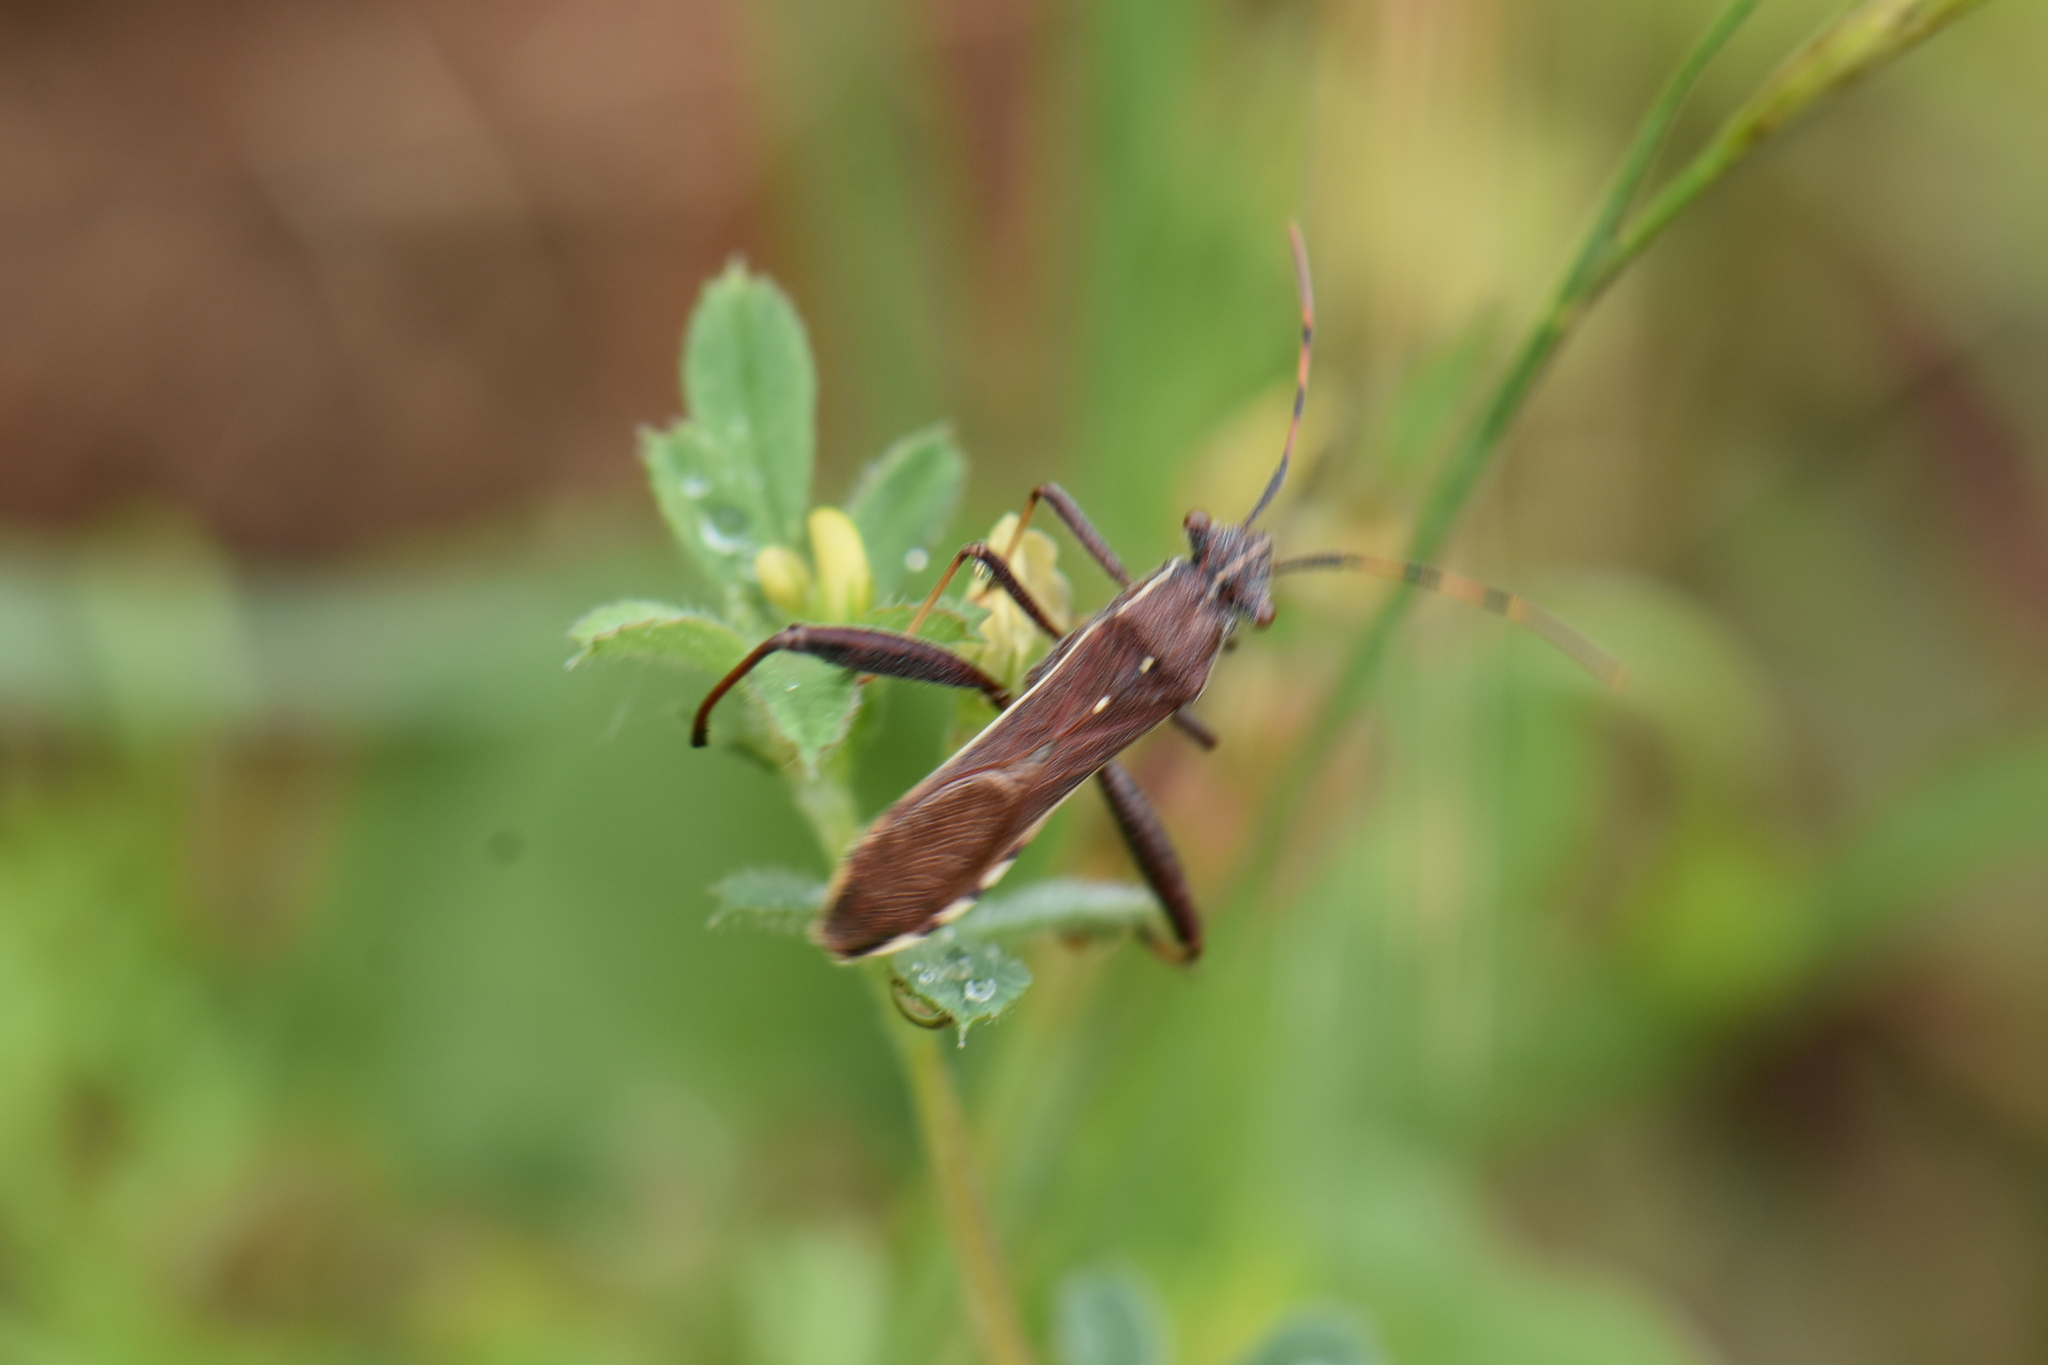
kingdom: Animalia
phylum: Arthropoda
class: Insecta
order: Hemiptera
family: Alydidae
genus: Camptopus
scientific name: Camptopus lateralis
